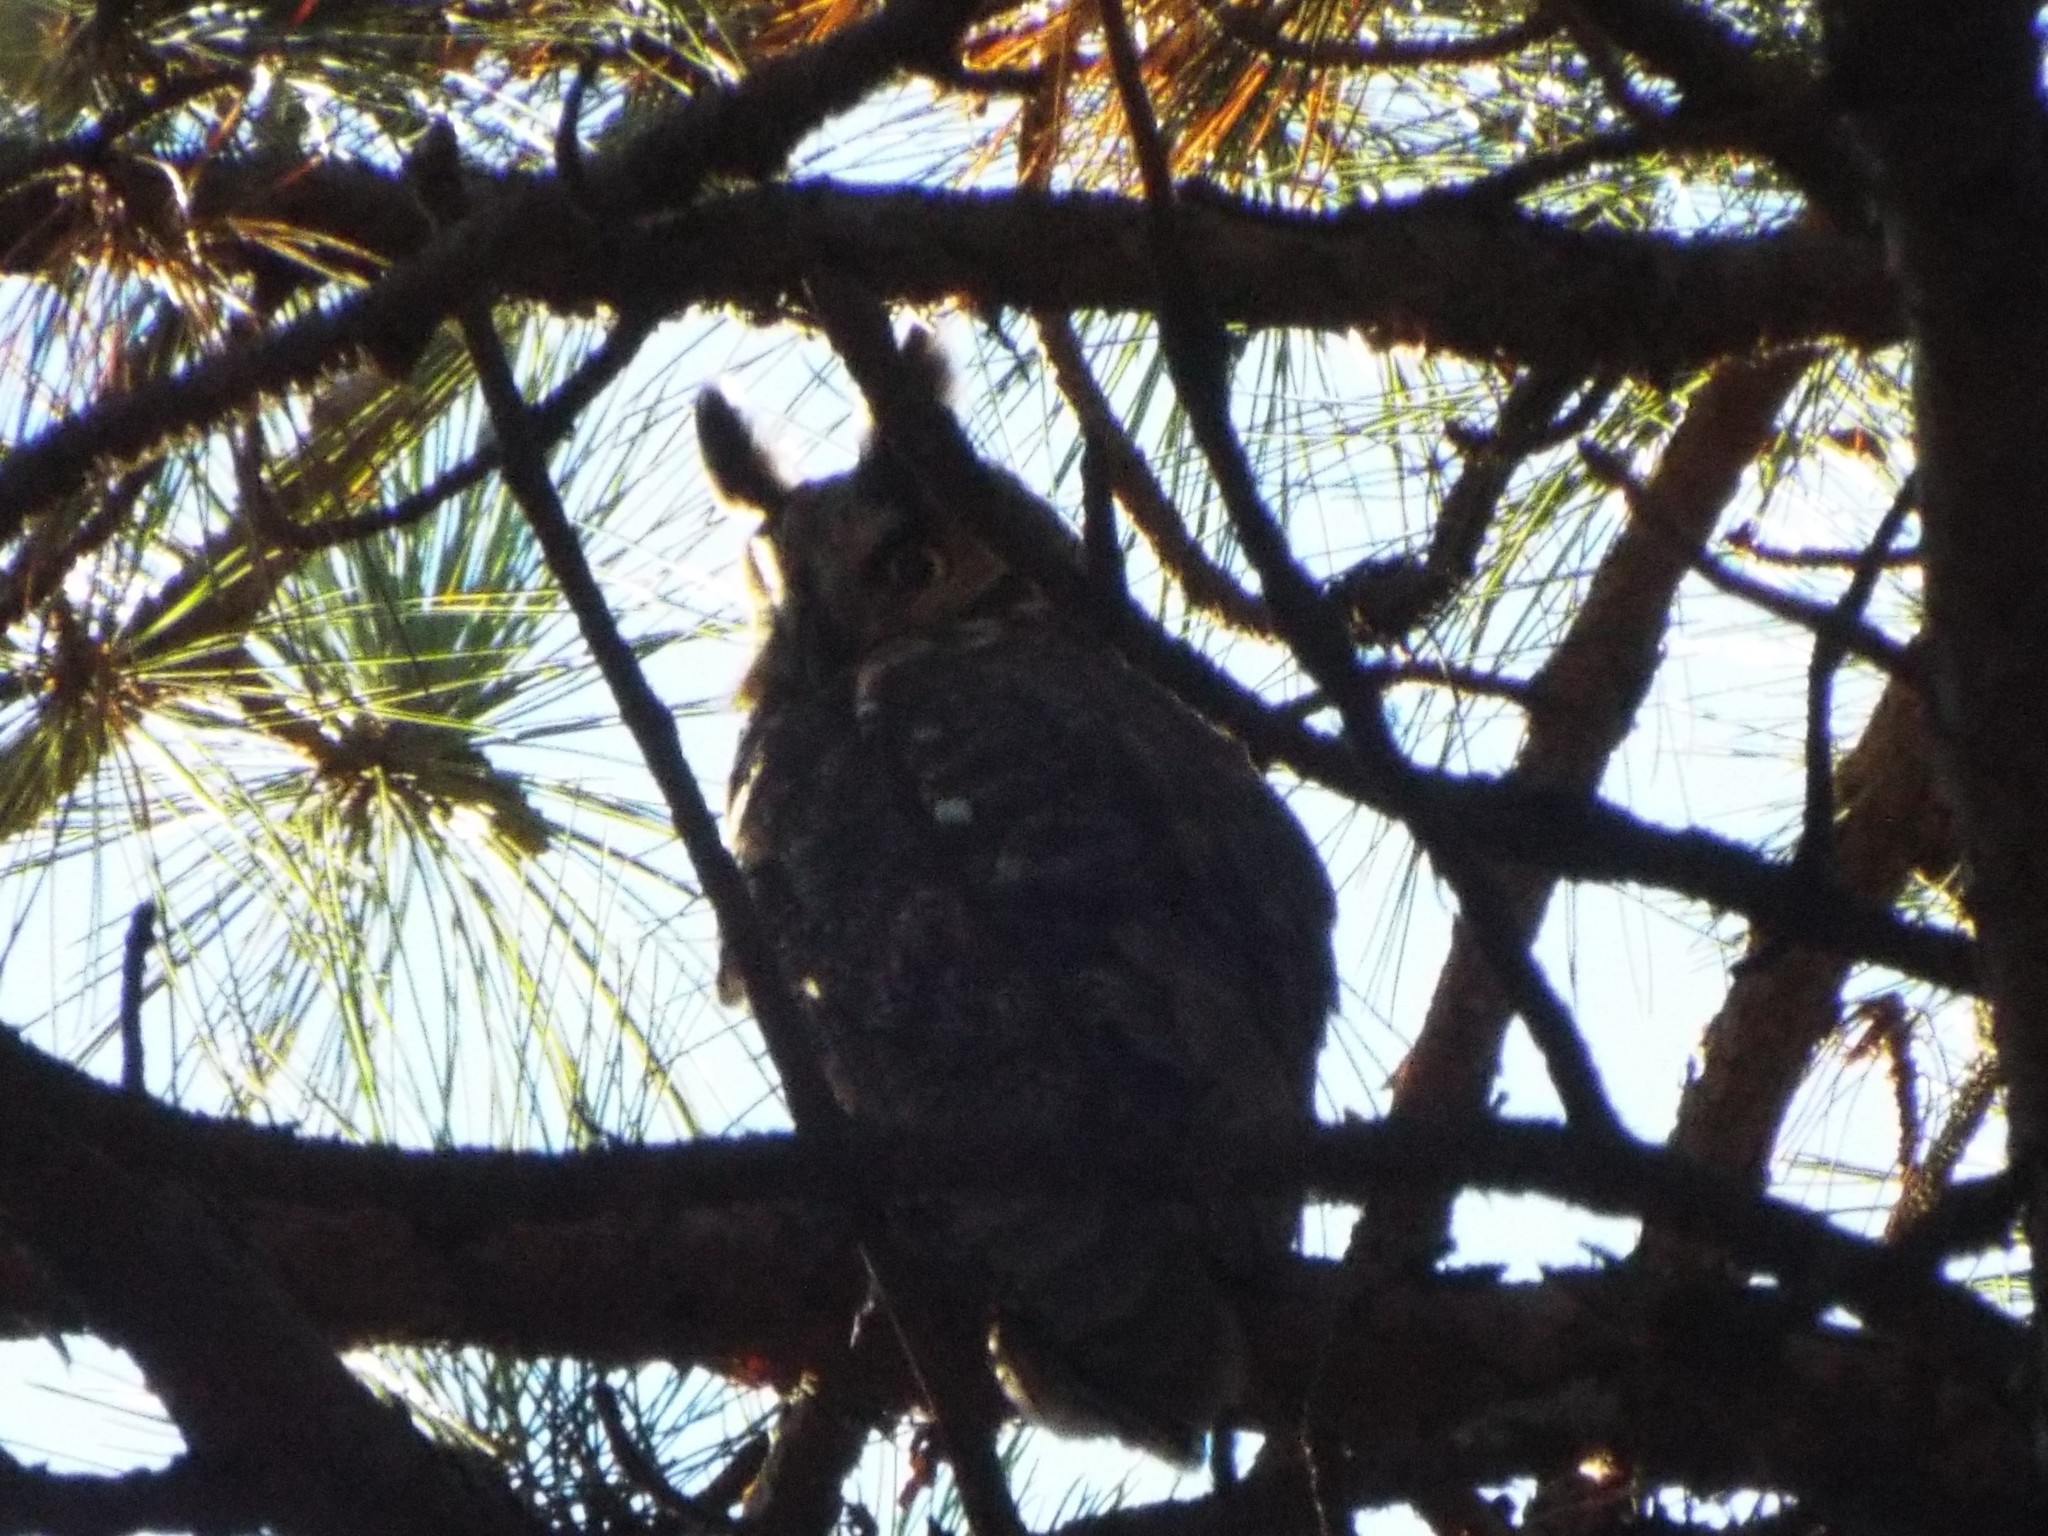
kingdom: Animalia
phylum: Chordata
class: Aves
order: Strigiformes
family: Strigidae
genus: Asio
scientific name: Asio otus
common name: Long-eared owl
